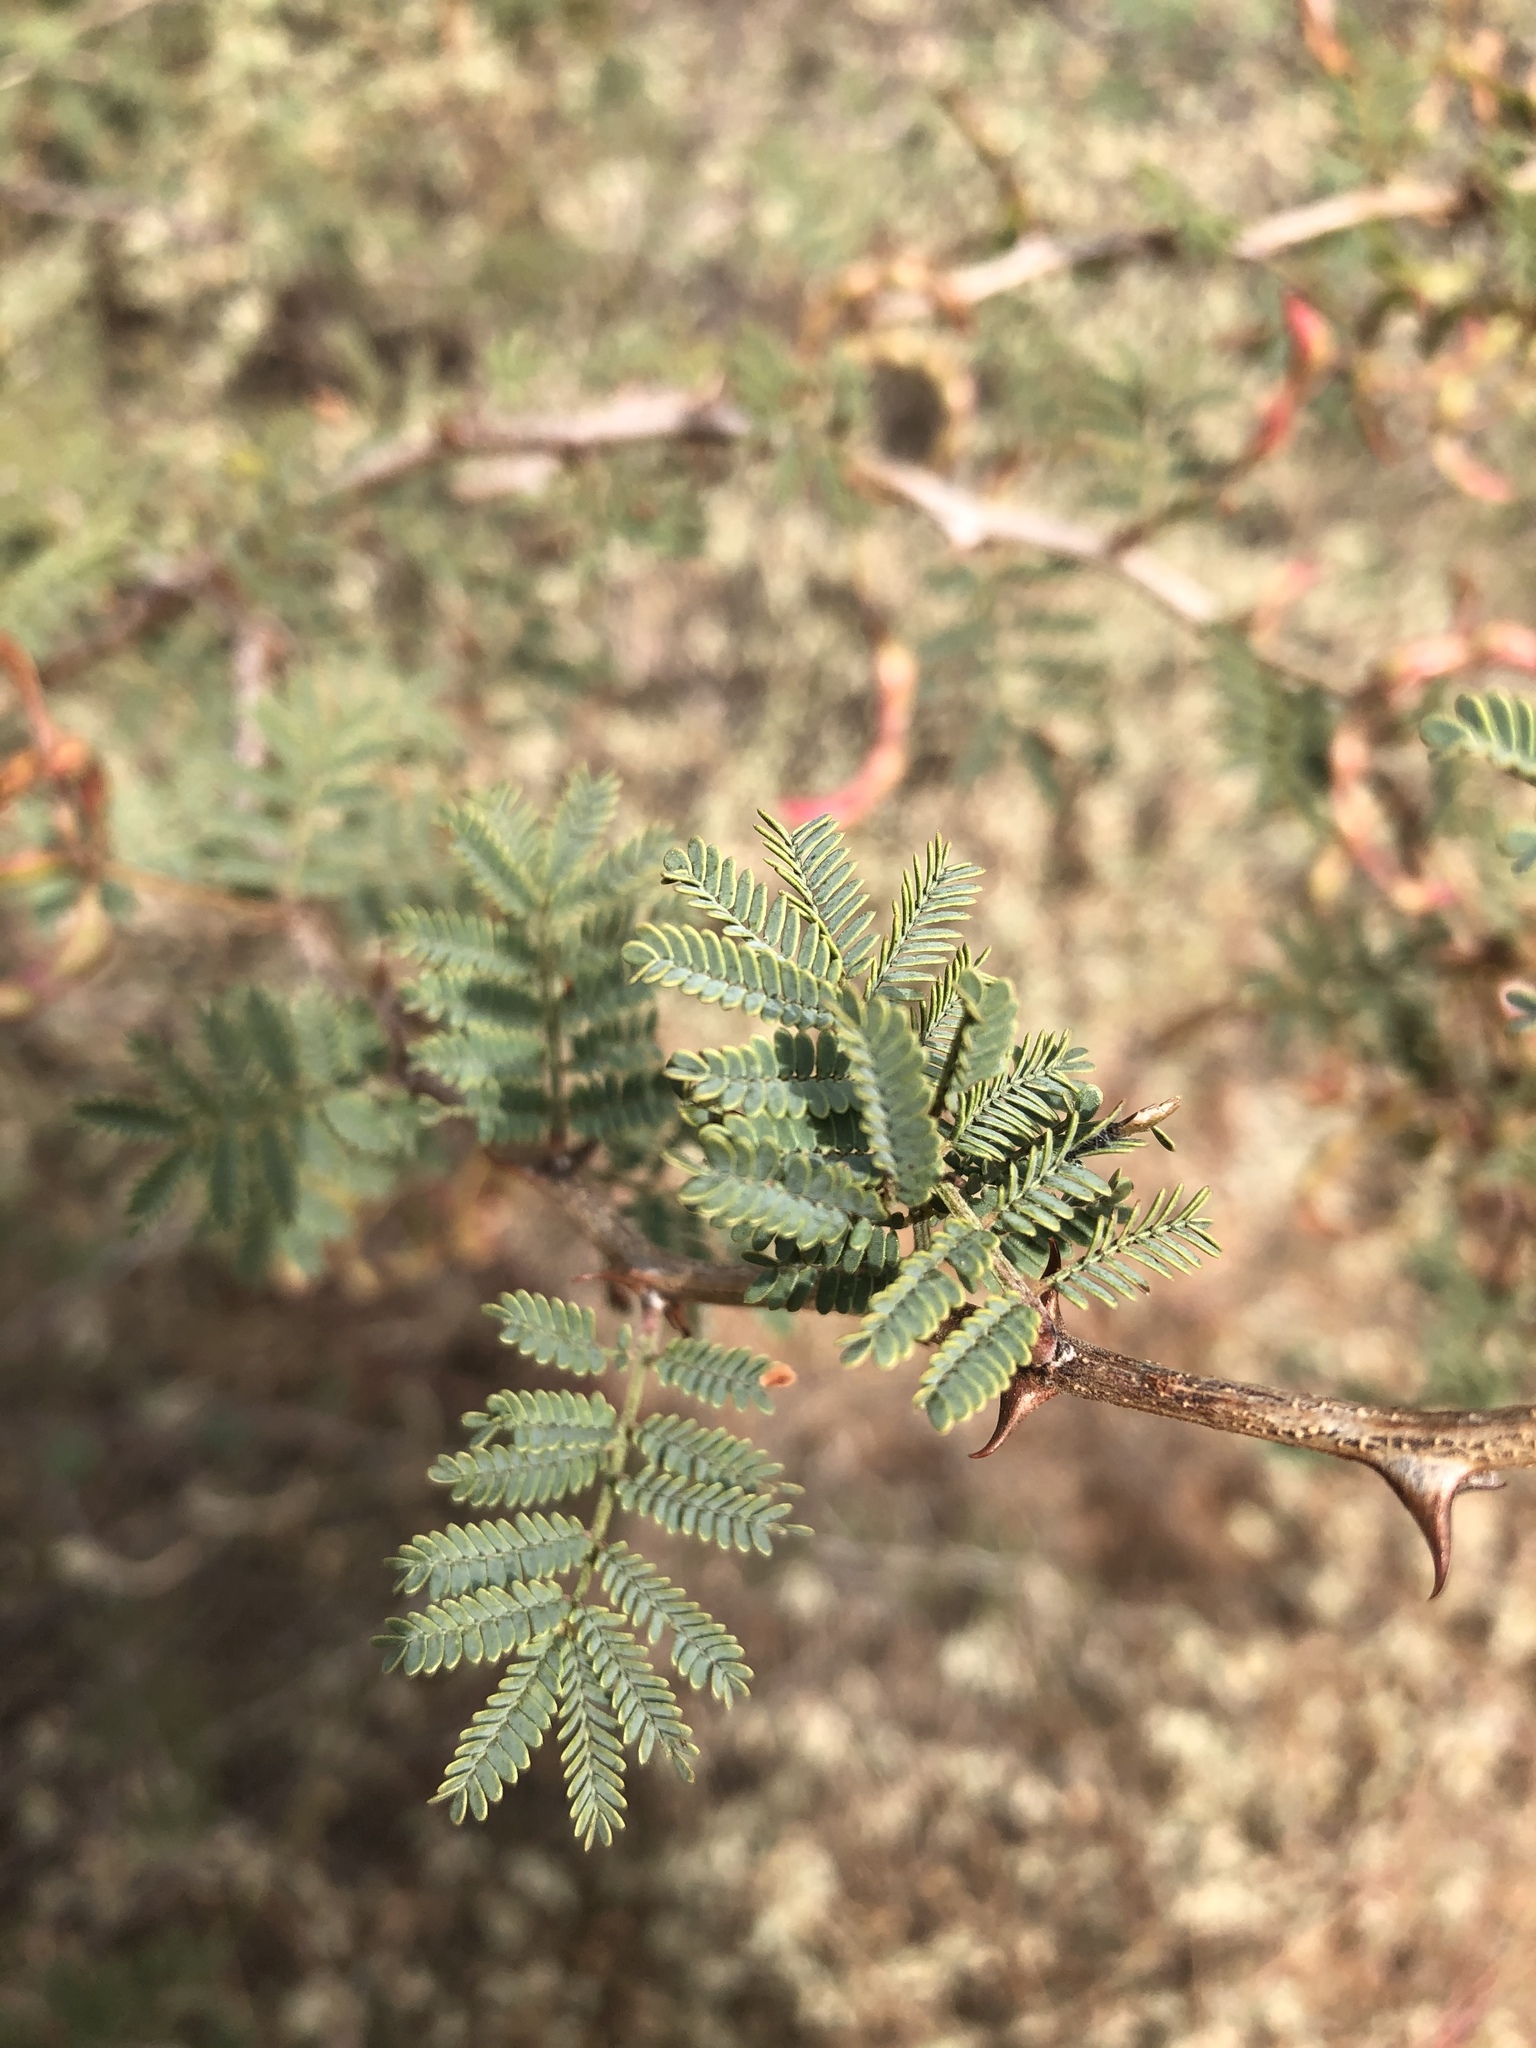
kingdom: Plantae
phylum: Tracheophyta
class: Magnoliopsida
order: Fabales
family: Fabaceae
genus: Mimosa
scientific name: Mimosa aculeaticarpa
